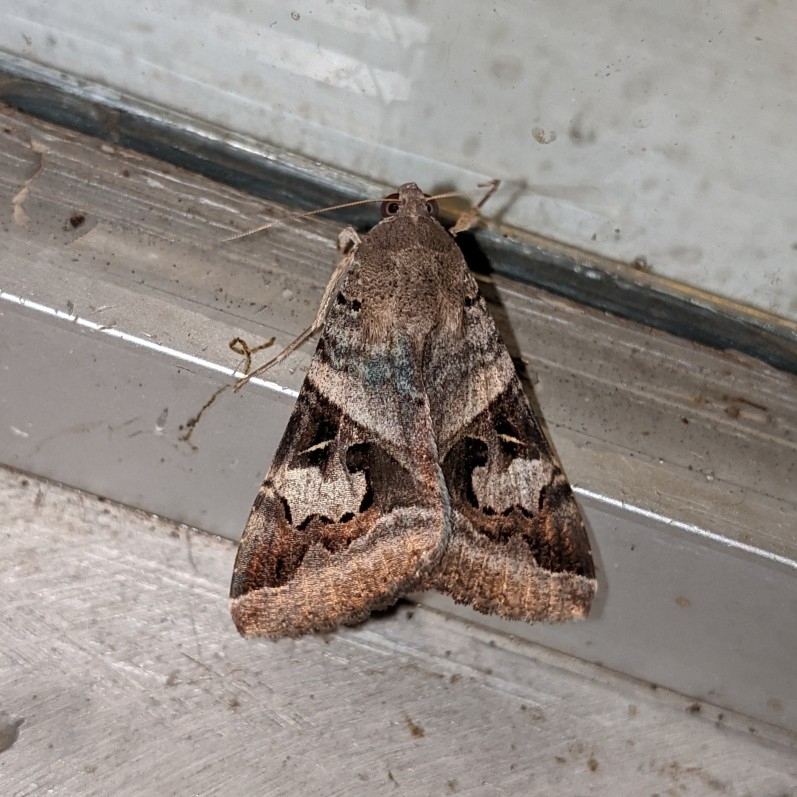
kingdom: Animalia
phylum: Arthropoda
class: Insecta
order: Lepidoptera
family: Erebidae
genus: Melipotis
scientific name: Melipotis indomita
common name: Moth
